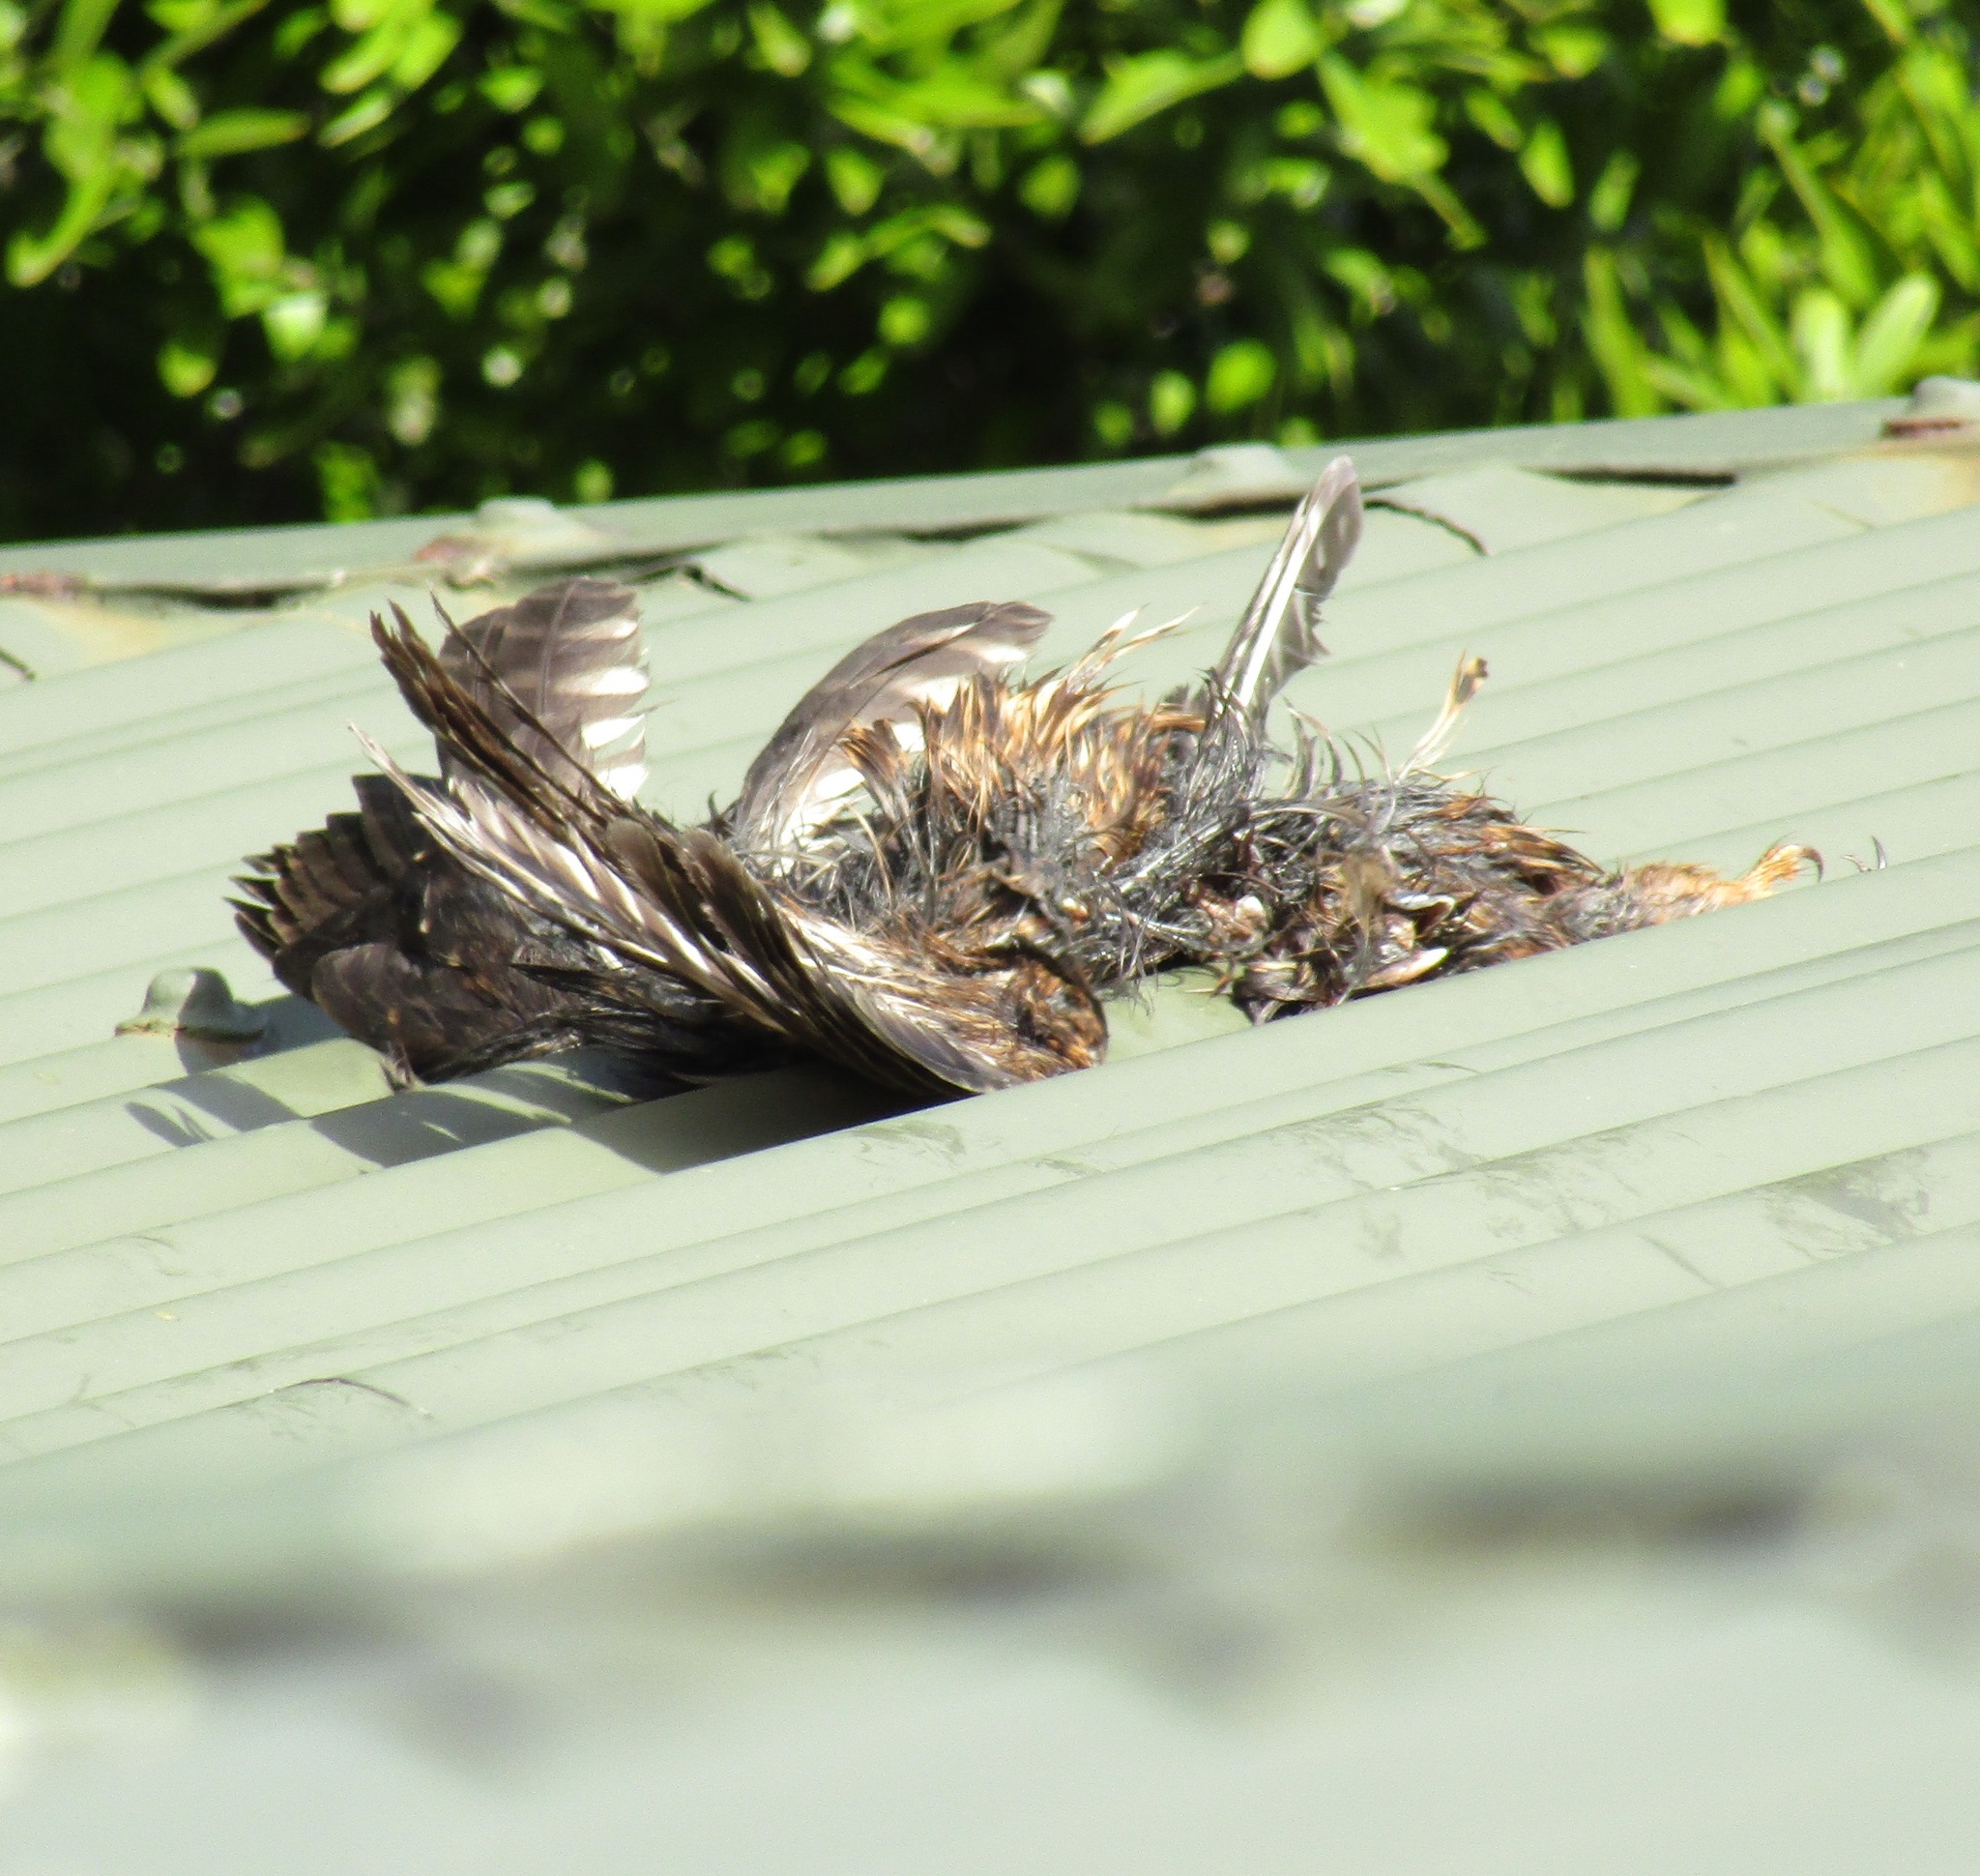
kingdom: Animalia
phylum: Chordata
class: Aves
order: Strigiformes
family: Strigidae
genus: Ninox
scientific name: Ninox novaeseelandiae
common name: Morepork
